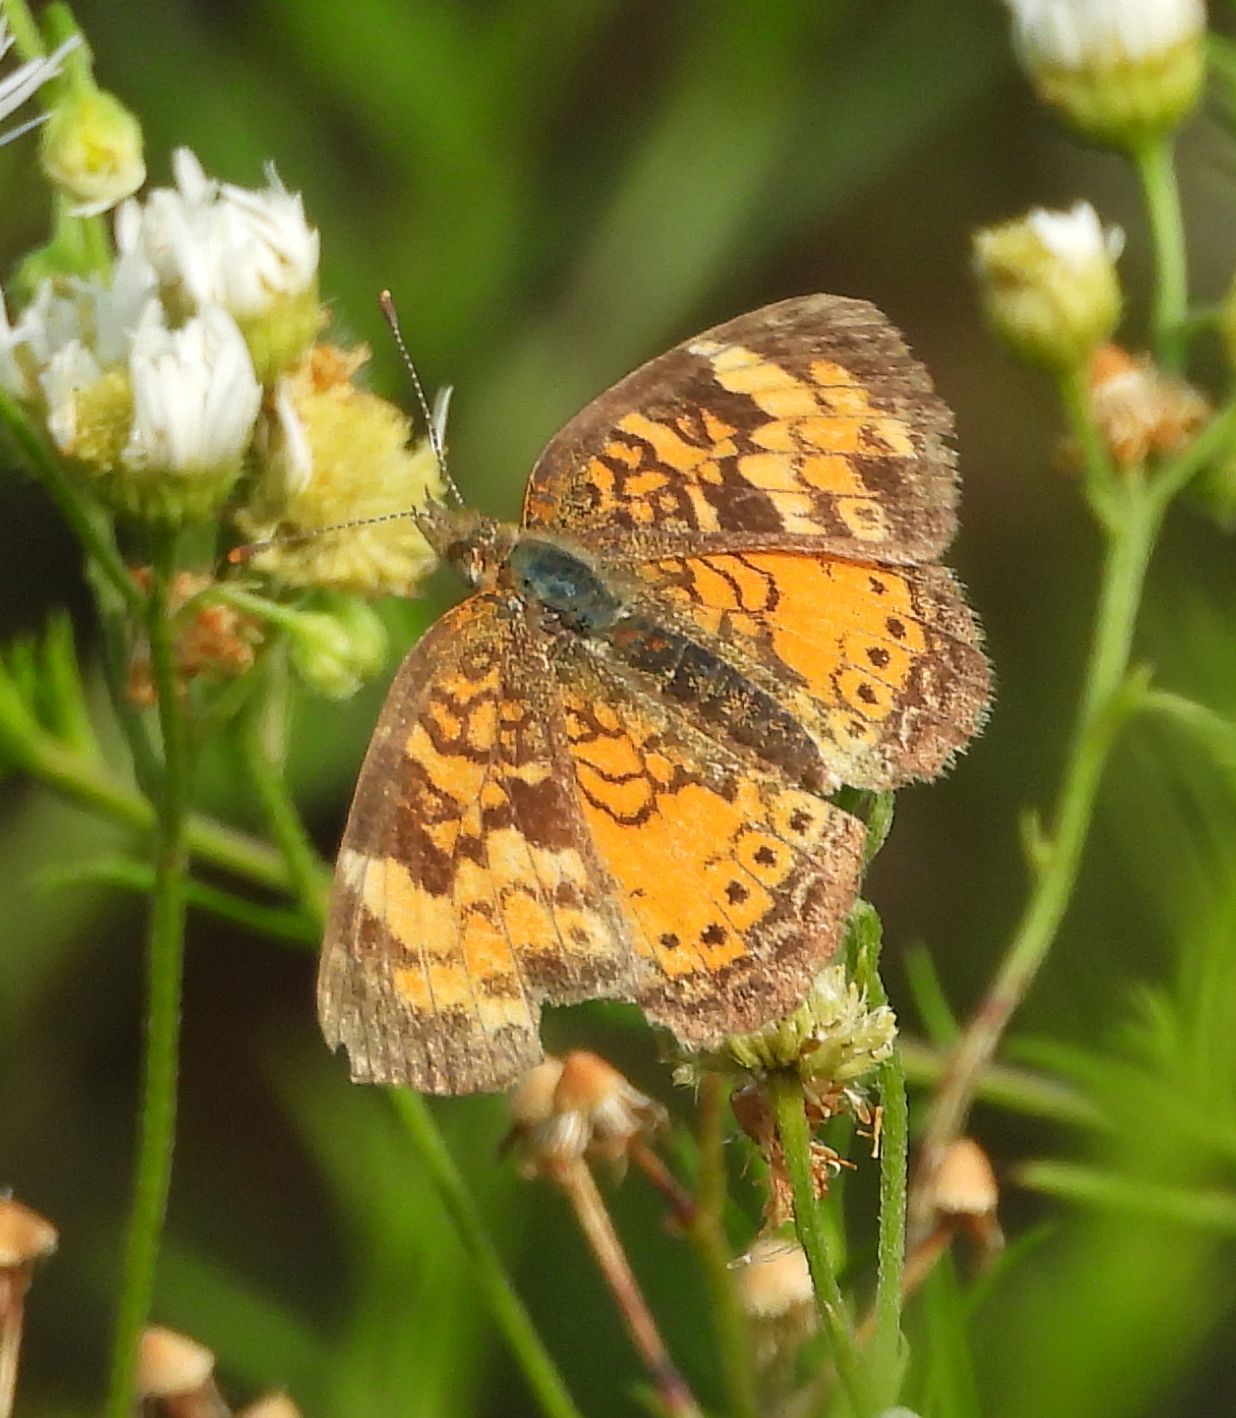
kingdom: Animalia
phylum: Arthropoda
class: Insecta
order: Lepidoptera
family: Nymphalidae
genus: Phyciodes
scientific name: Phyciodes tharos
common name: Pearl crescent
